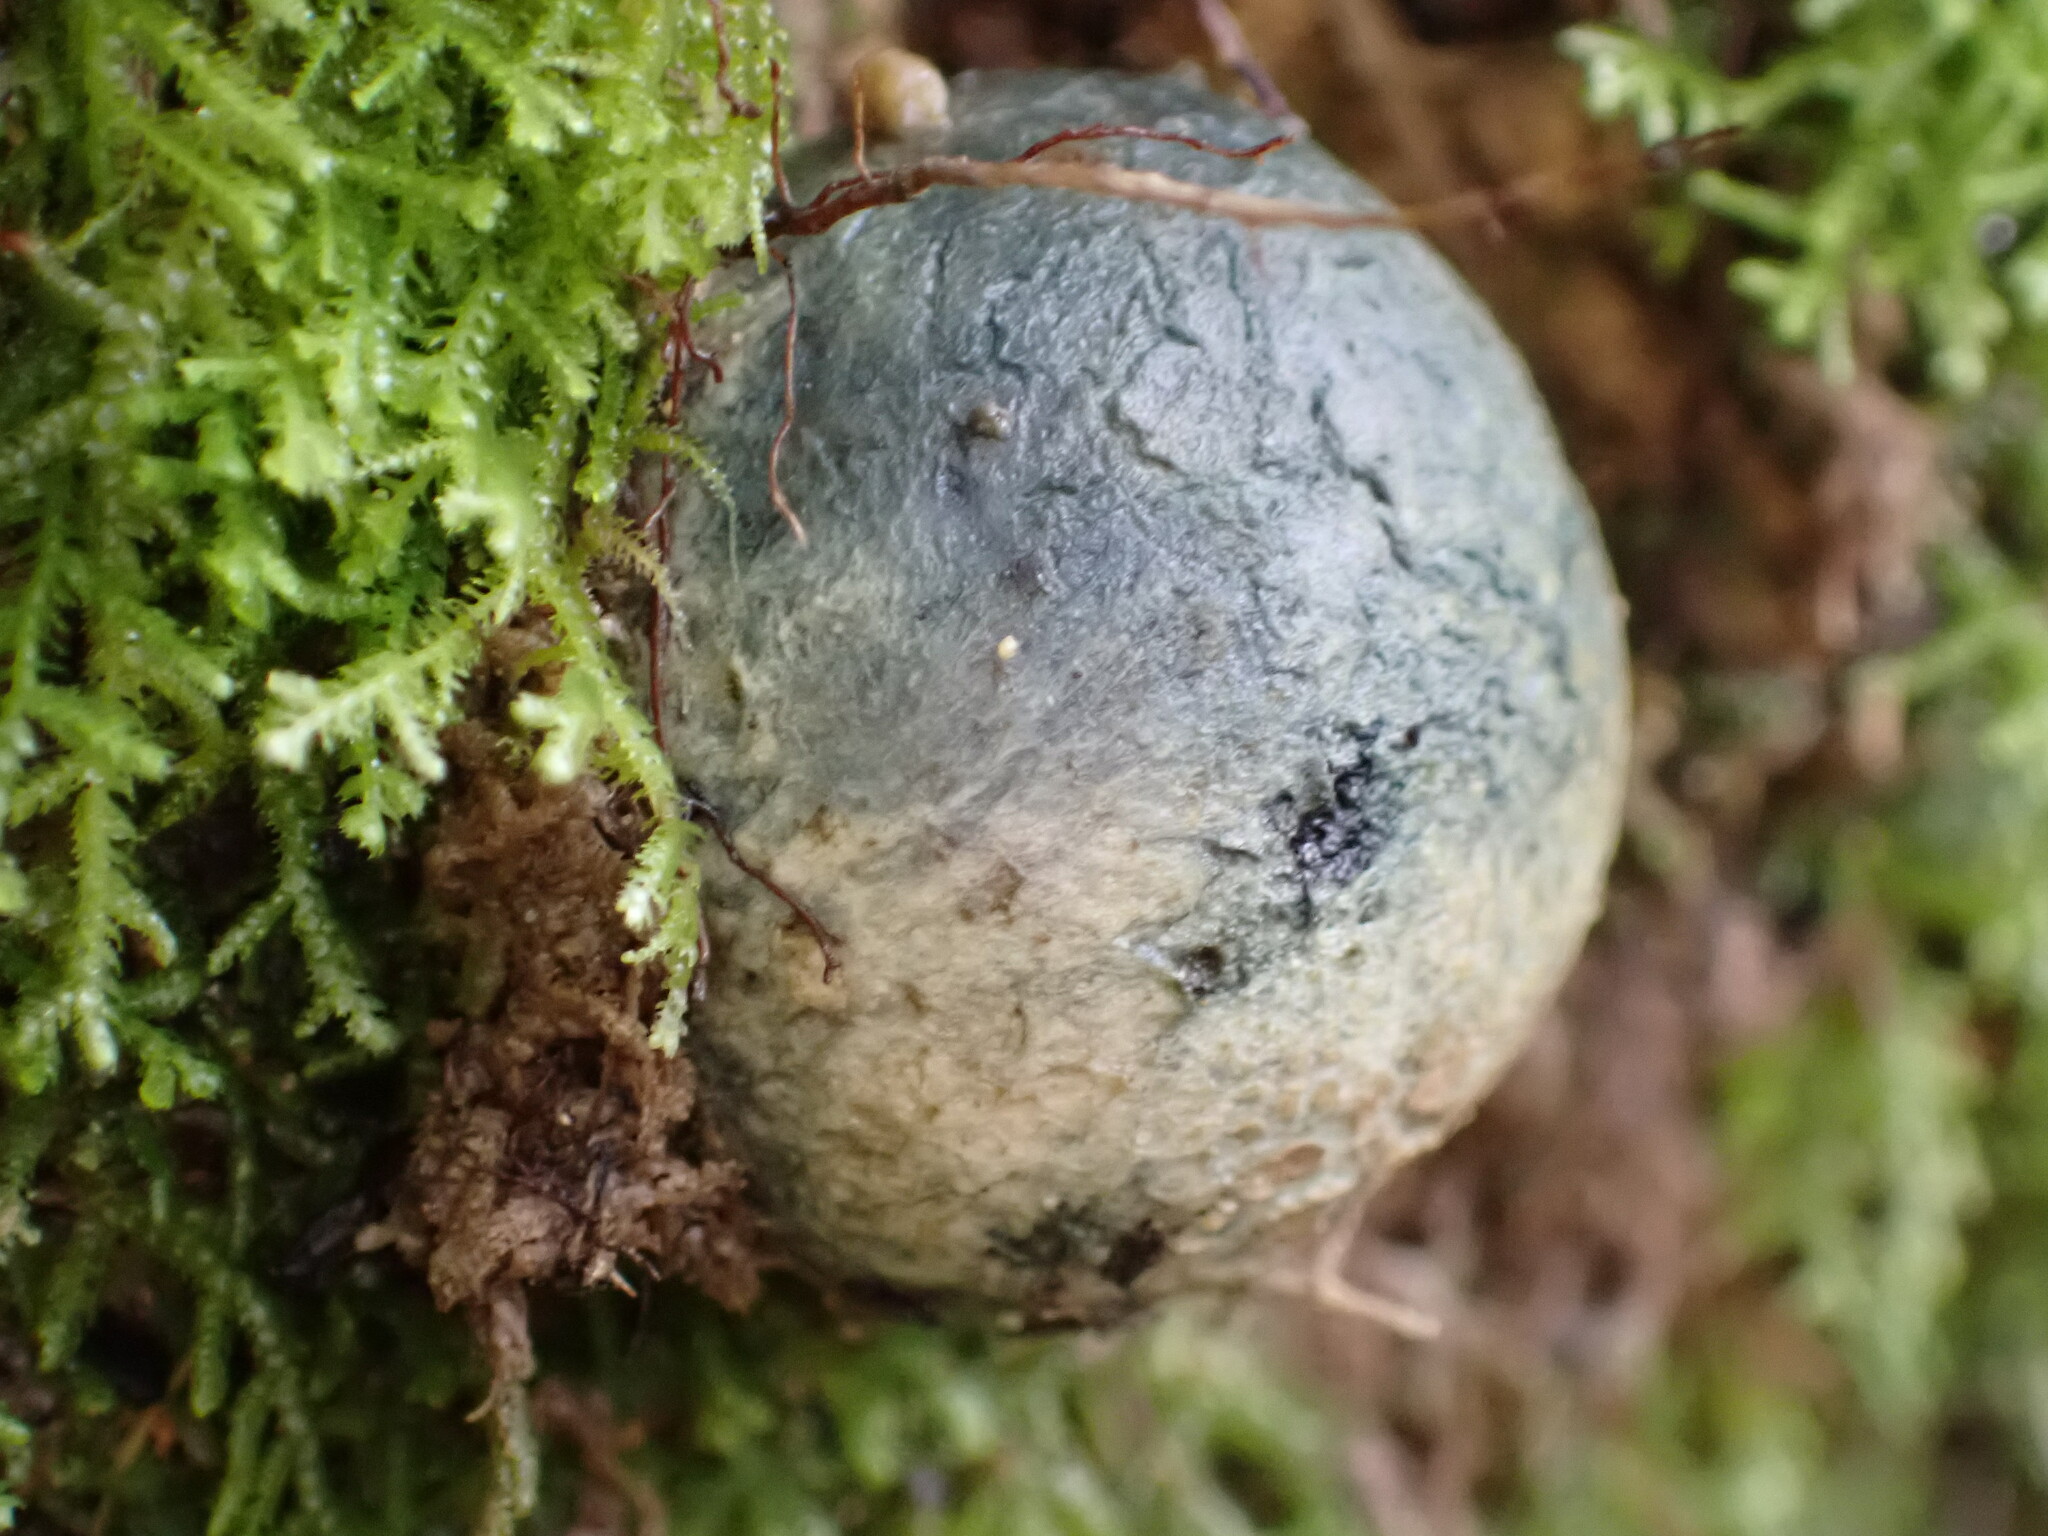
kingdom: Fungi
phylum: Basidiomycota
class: Agaricomycetes
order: Boletales
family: Boletaceae
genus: Leccinum
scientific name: Leccinum pachyderme
